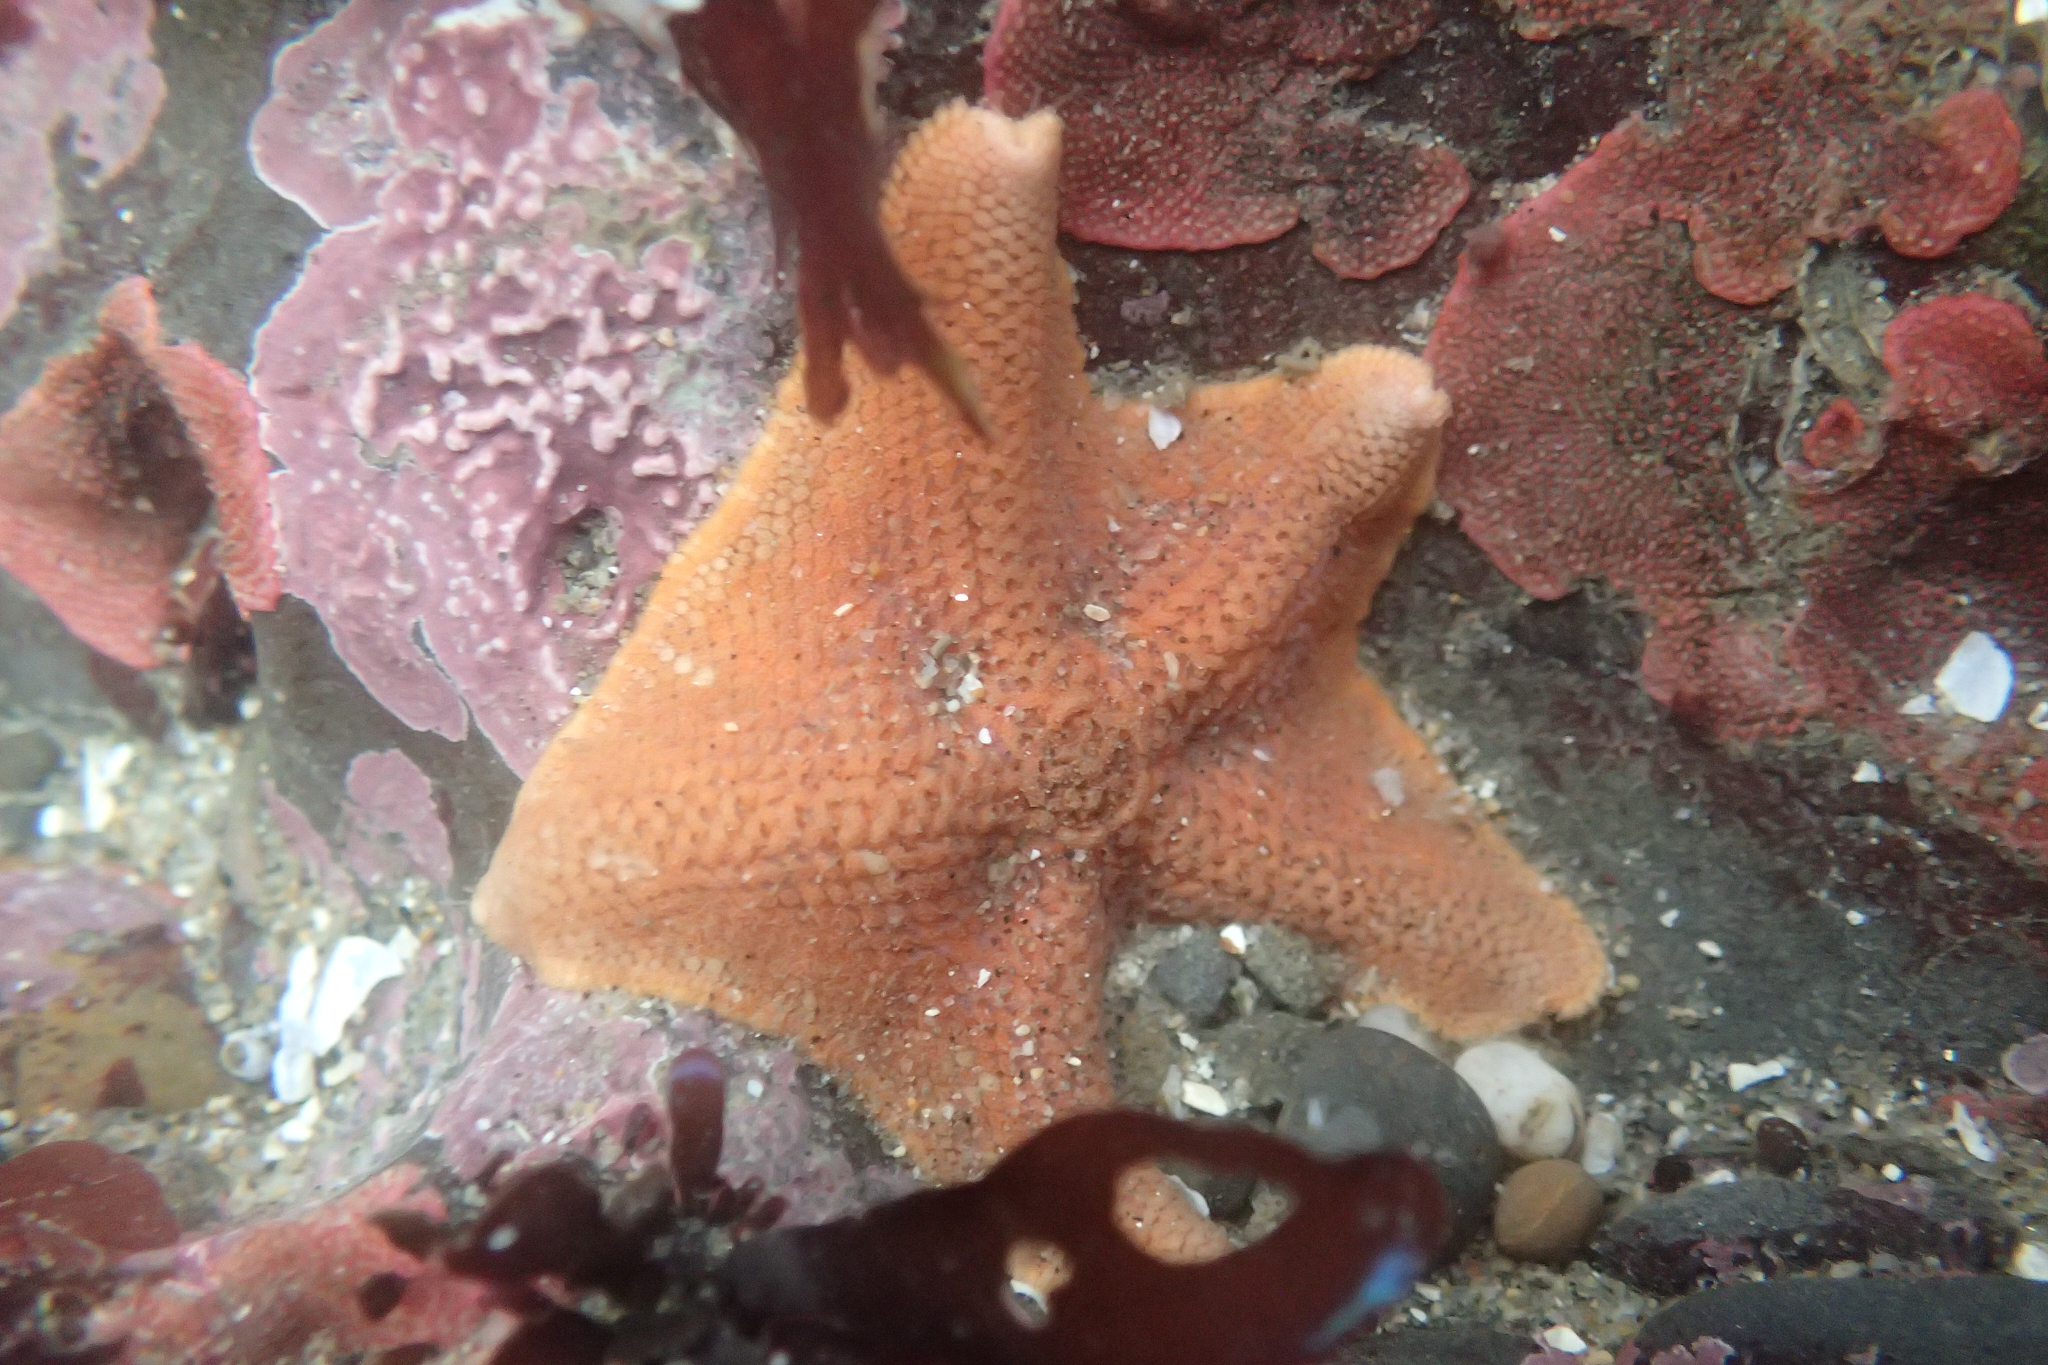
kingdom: Animalia
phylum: Echinodermata
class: Asteroidea
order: Valvatida
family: Asterinidae
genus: Patiria
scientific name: Patiria miniata
